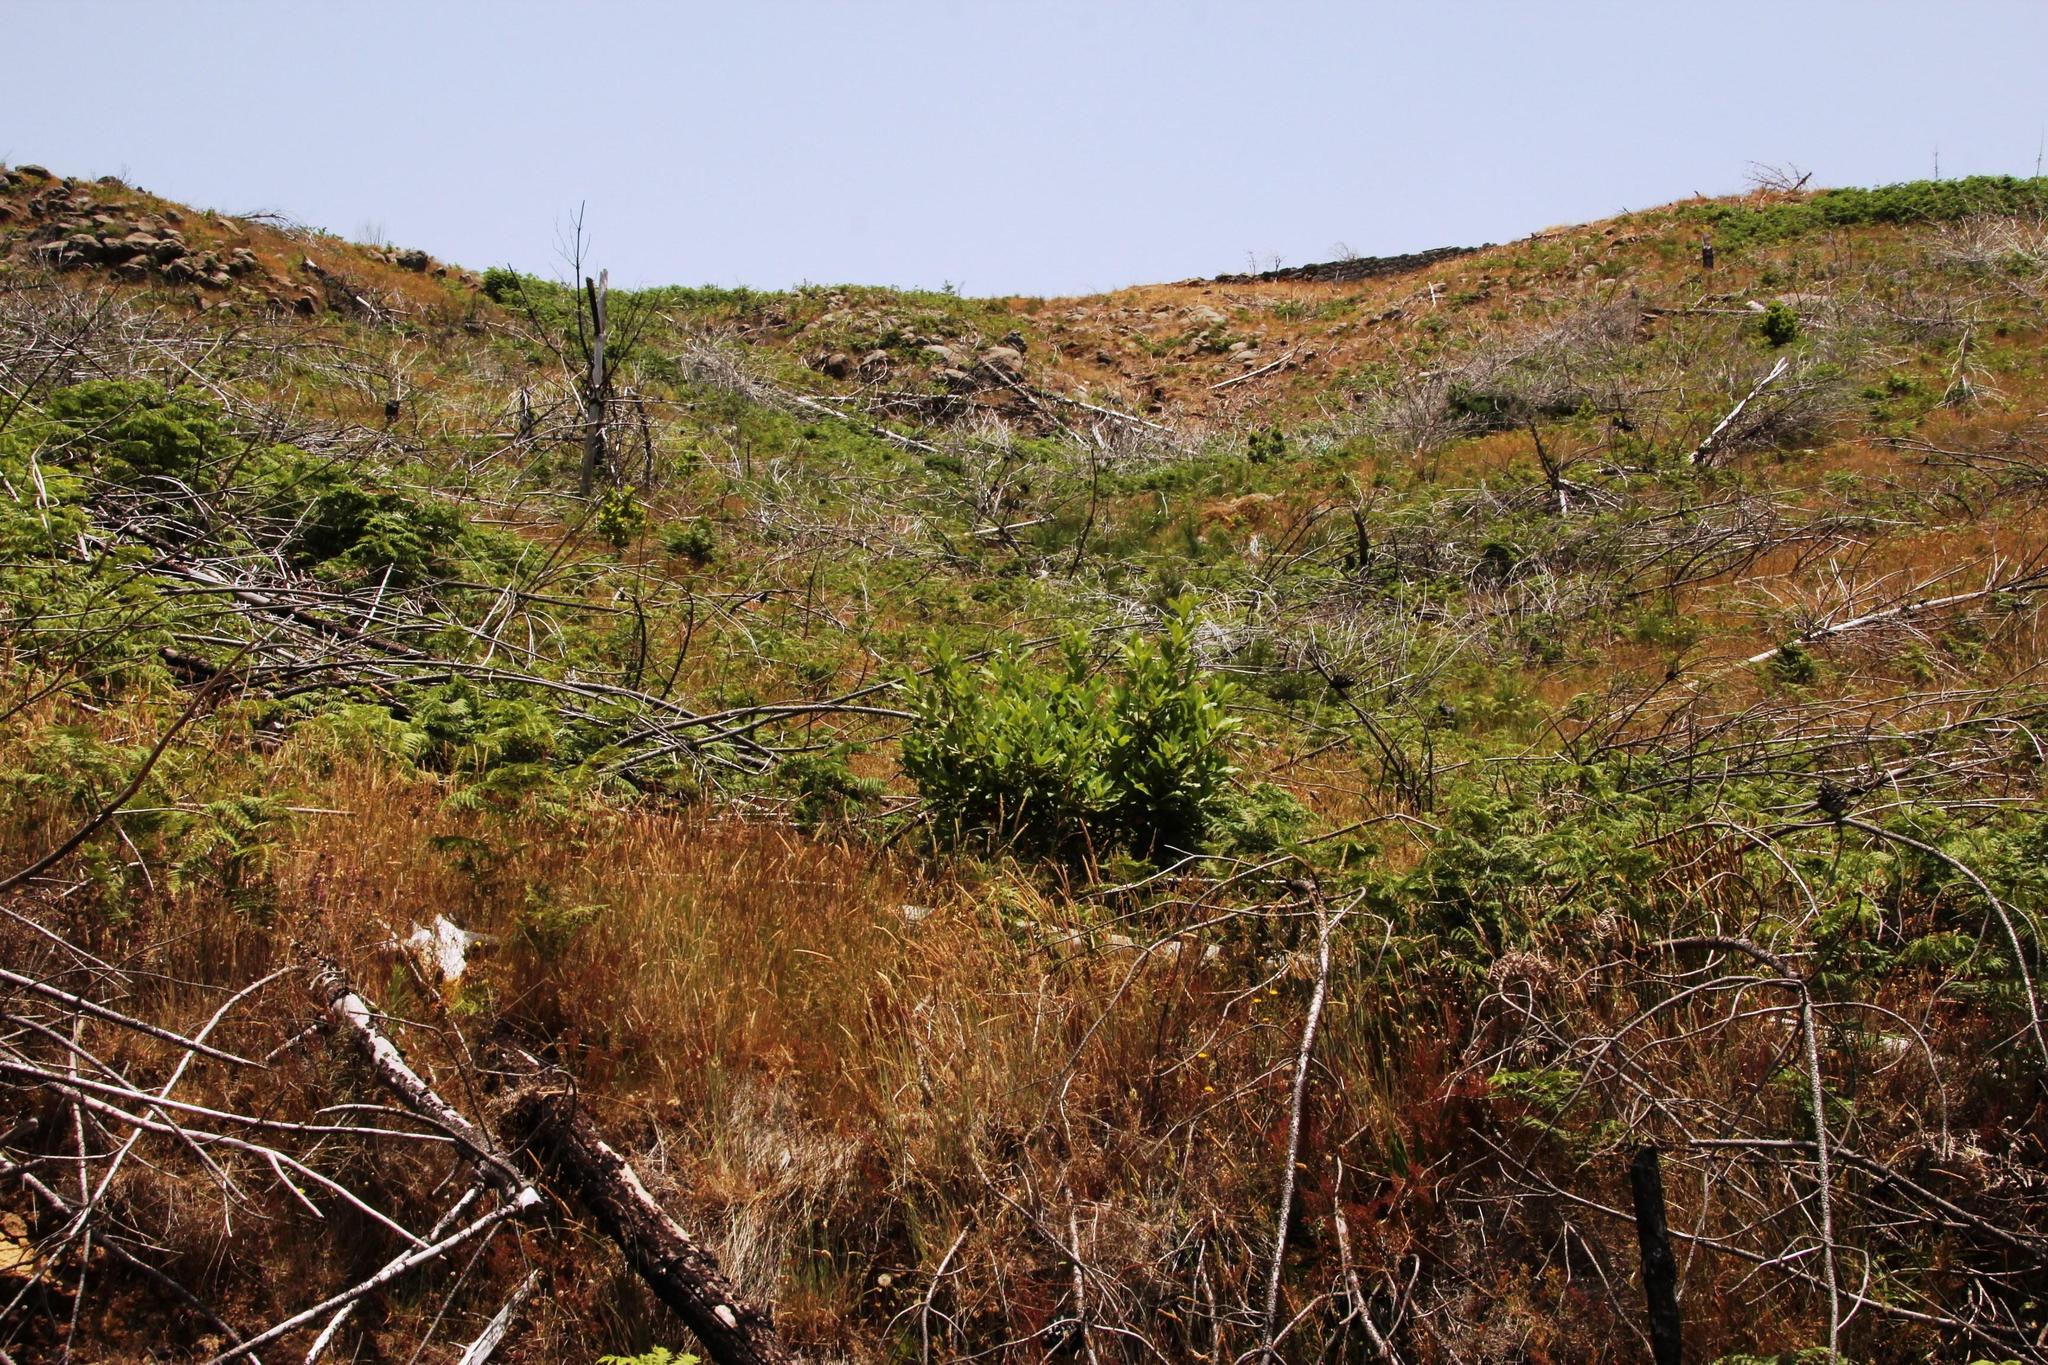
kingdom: Plantae
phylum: Tracheophyta
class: Magnoliopsida
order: Laurales
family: Lauraceae
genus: Laurus
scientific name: Laurus novocanariensis
